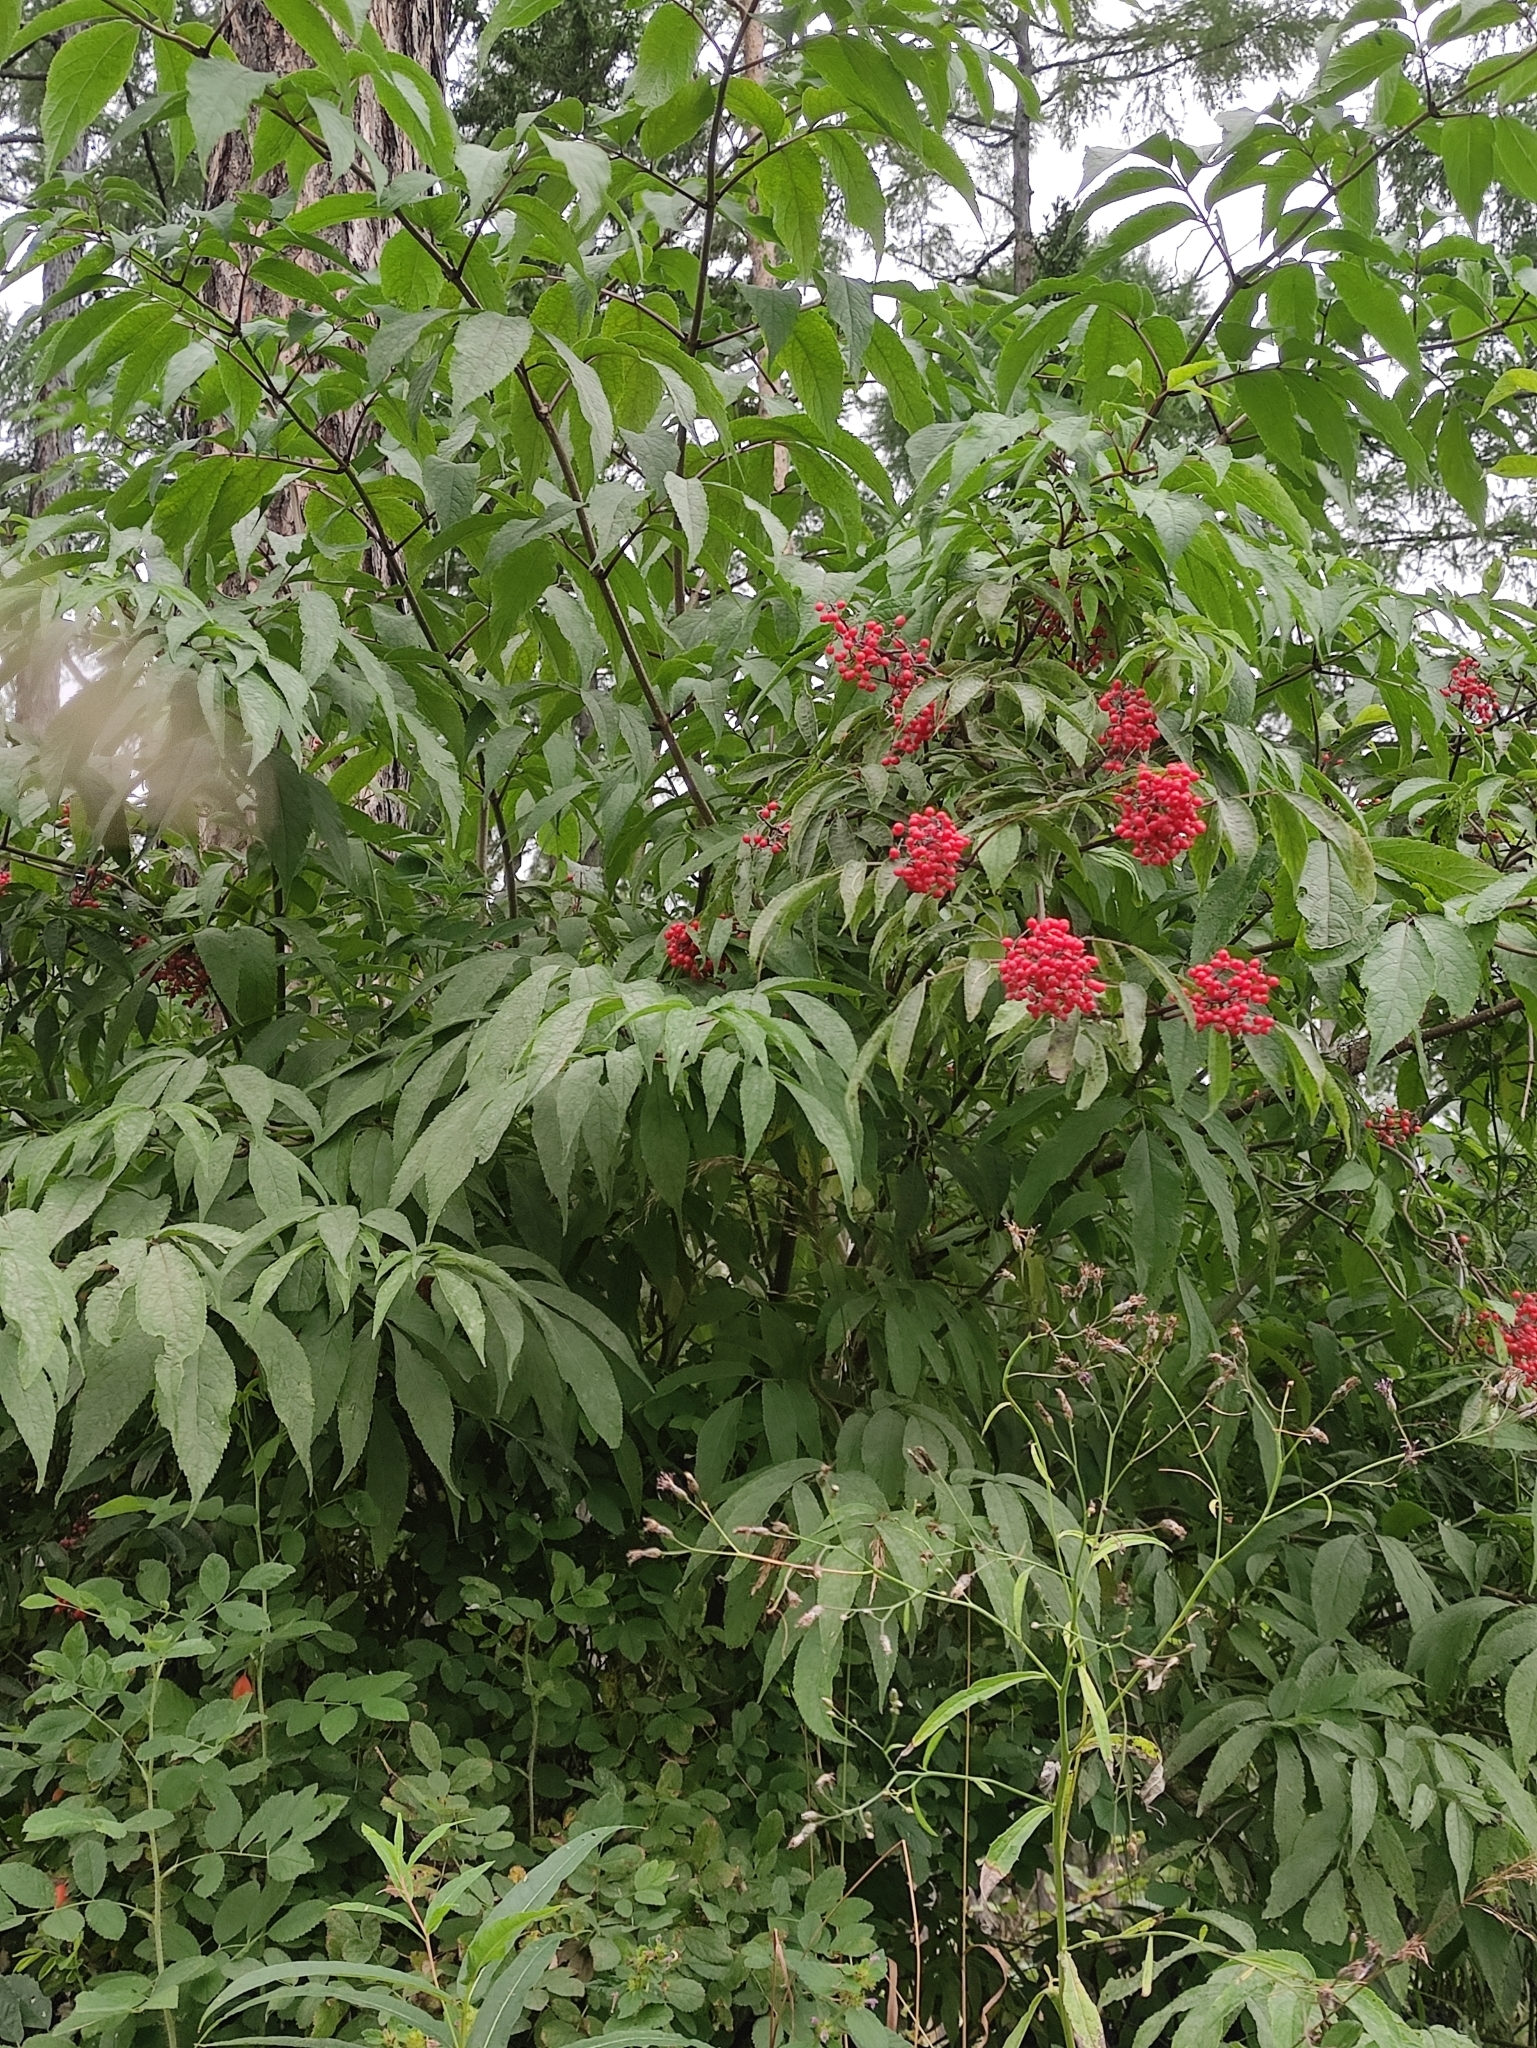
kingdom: Plantae
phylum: Tracheophyta
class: Magnoliopsida
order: Dipsacales
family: Viburnaceae
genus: Sambucus
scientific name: Sambucus sibirica
